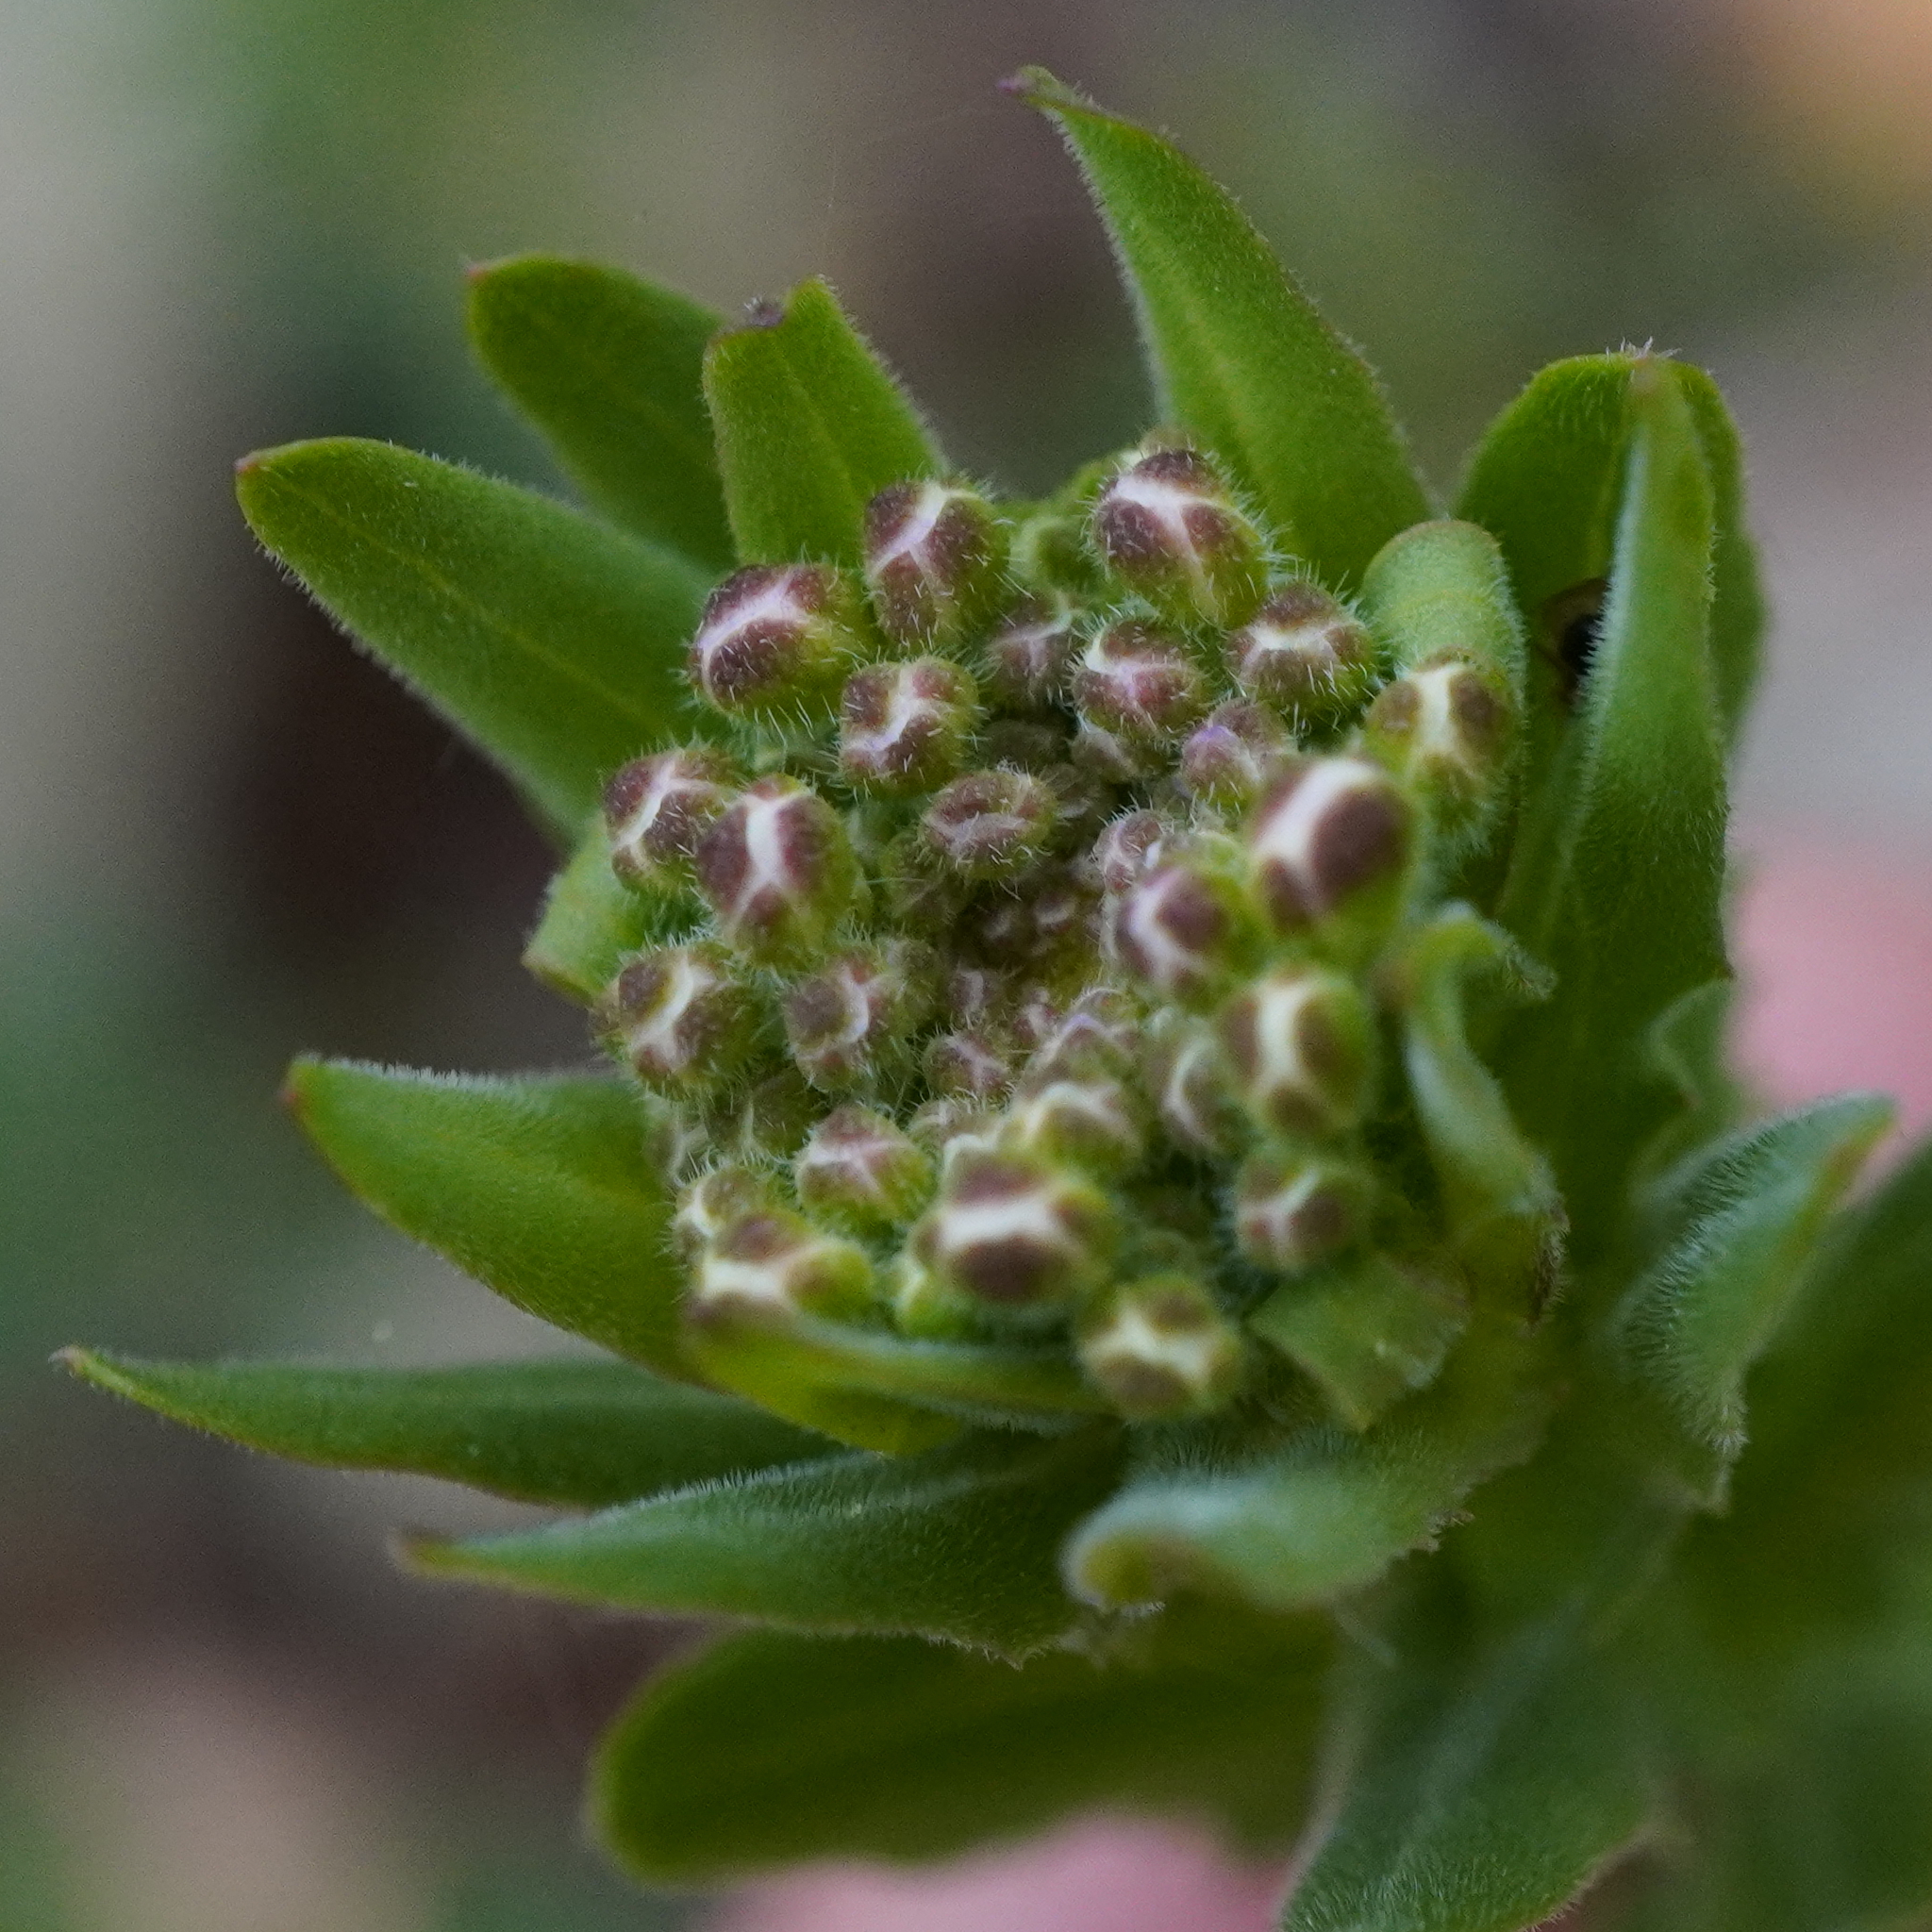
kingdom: Plantae
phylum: Tracheophyta
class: Magnoliopsida
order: Brassicales
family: Brassicaceae
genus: Lepidium
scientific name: Lepidium campestre
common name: Field pepperwort
